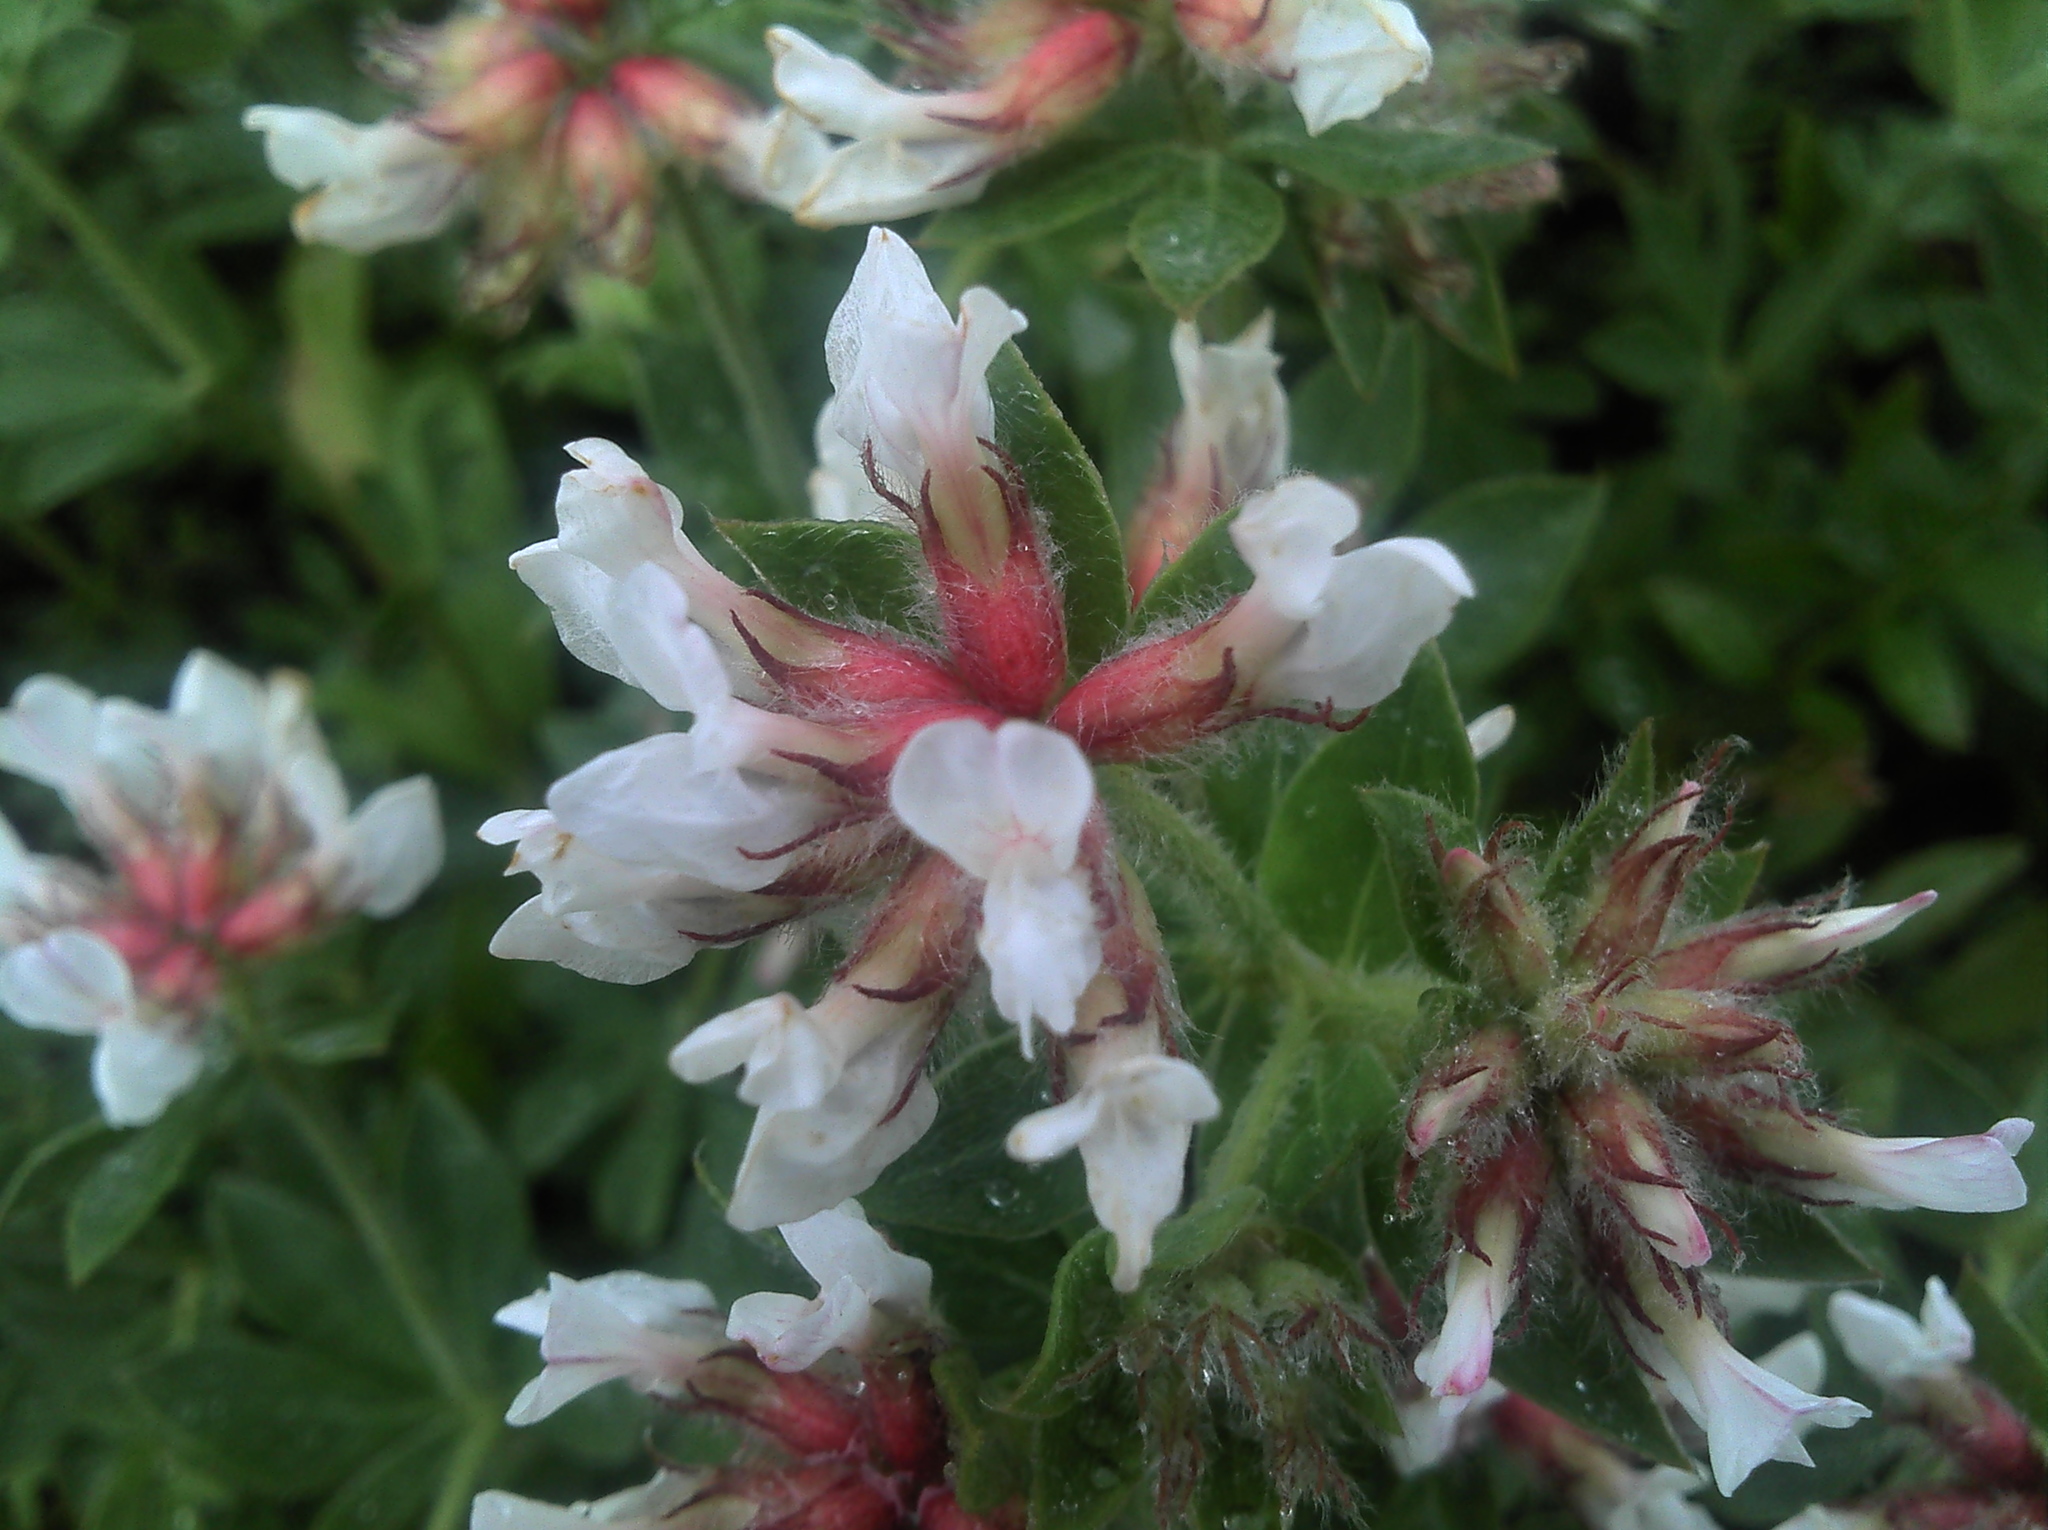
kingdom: Plantae
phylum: Tracheophyta
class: Magnoliopsida
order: Fabales
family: Fabaceae
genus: Lotus
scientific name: Lotus hirsutus
